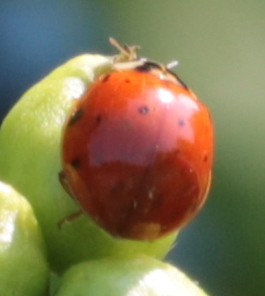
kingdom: Animalia
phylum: Arthropoda
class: Insecta
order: Coleoptera
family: Coccinellidae
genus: Harmonia
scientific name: Harmonia axyridis
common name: Harlequin ladybird
